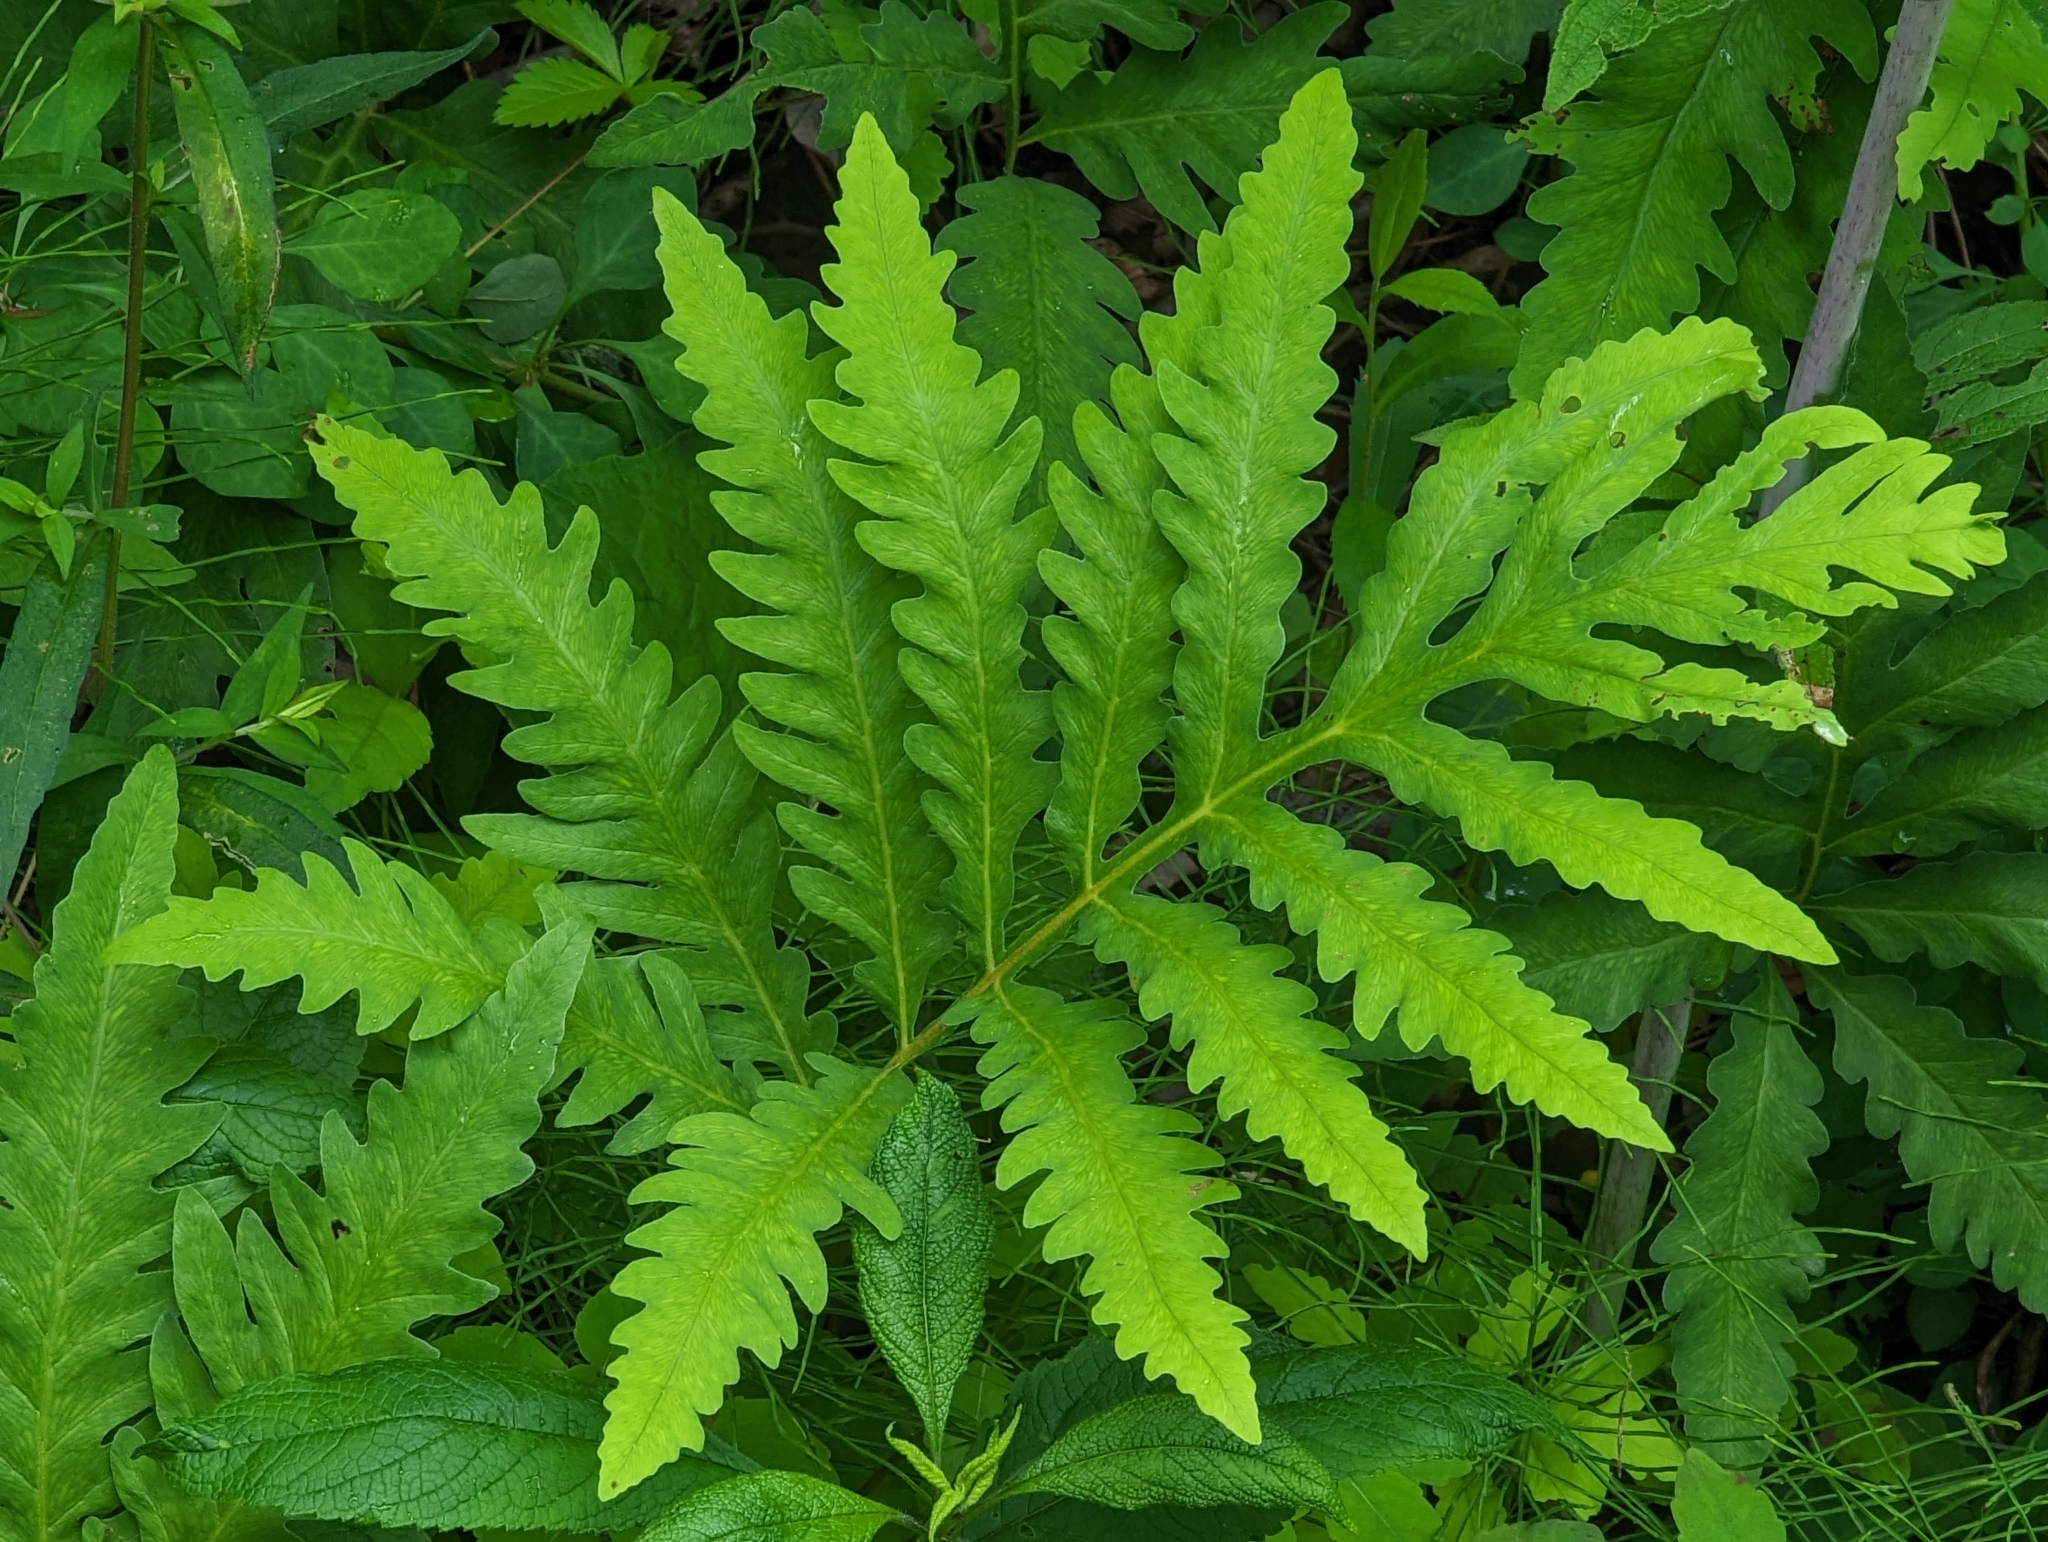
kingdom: Plantae
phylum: Tracheophyta
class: Polypodiopsida
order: Polypodiales
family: Onocleaceae
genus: Onoclea
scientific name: Onoclea sensibilis
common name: Sensitive fern
